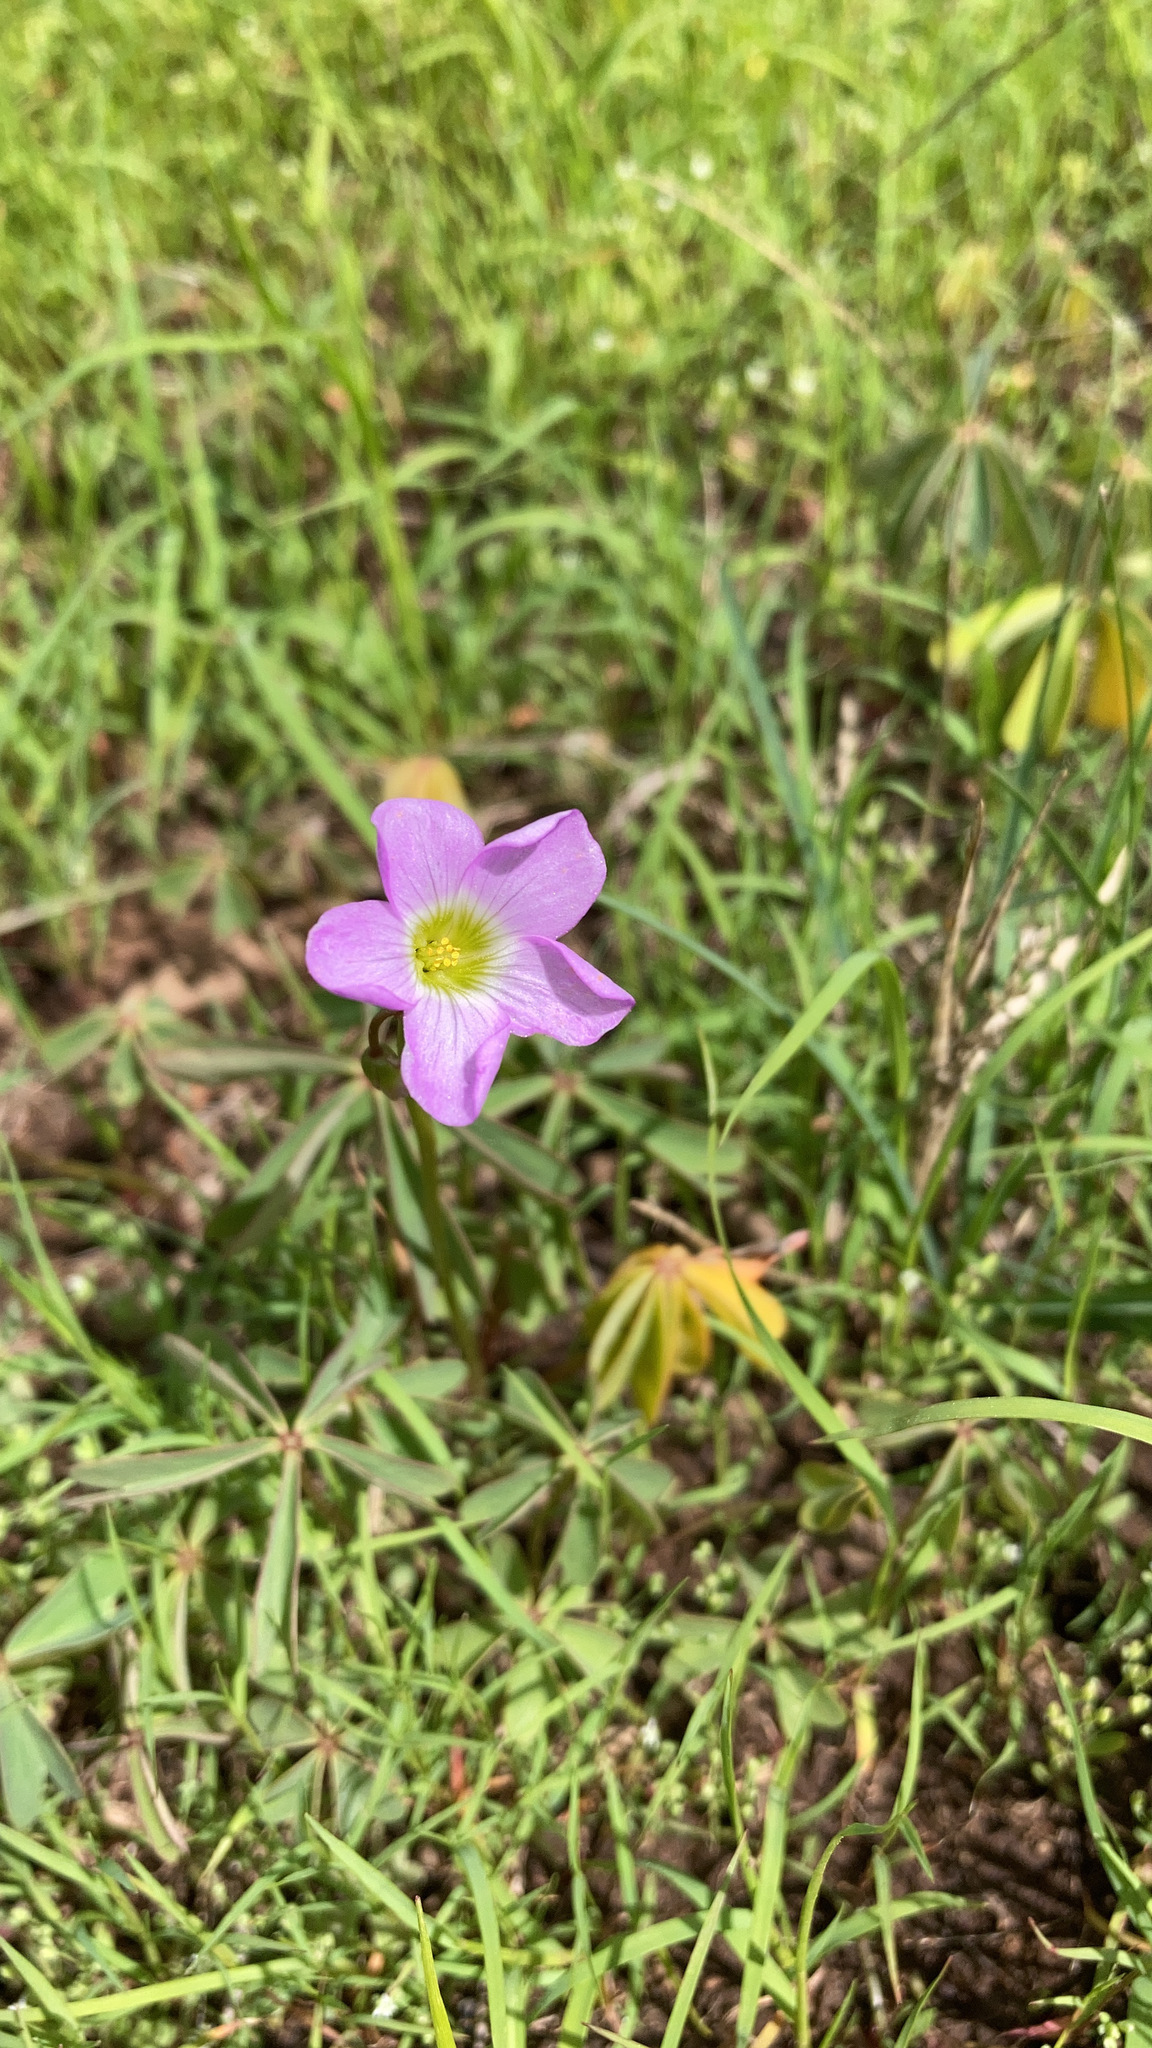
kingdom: Plantae
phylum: Tracheophyta
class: Magnoliopsida
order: Oxalidales
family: Oxalidaceae
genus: Oxalis
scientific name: Oxalis decaphylla
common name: Ten-leaved pink-sorrel
